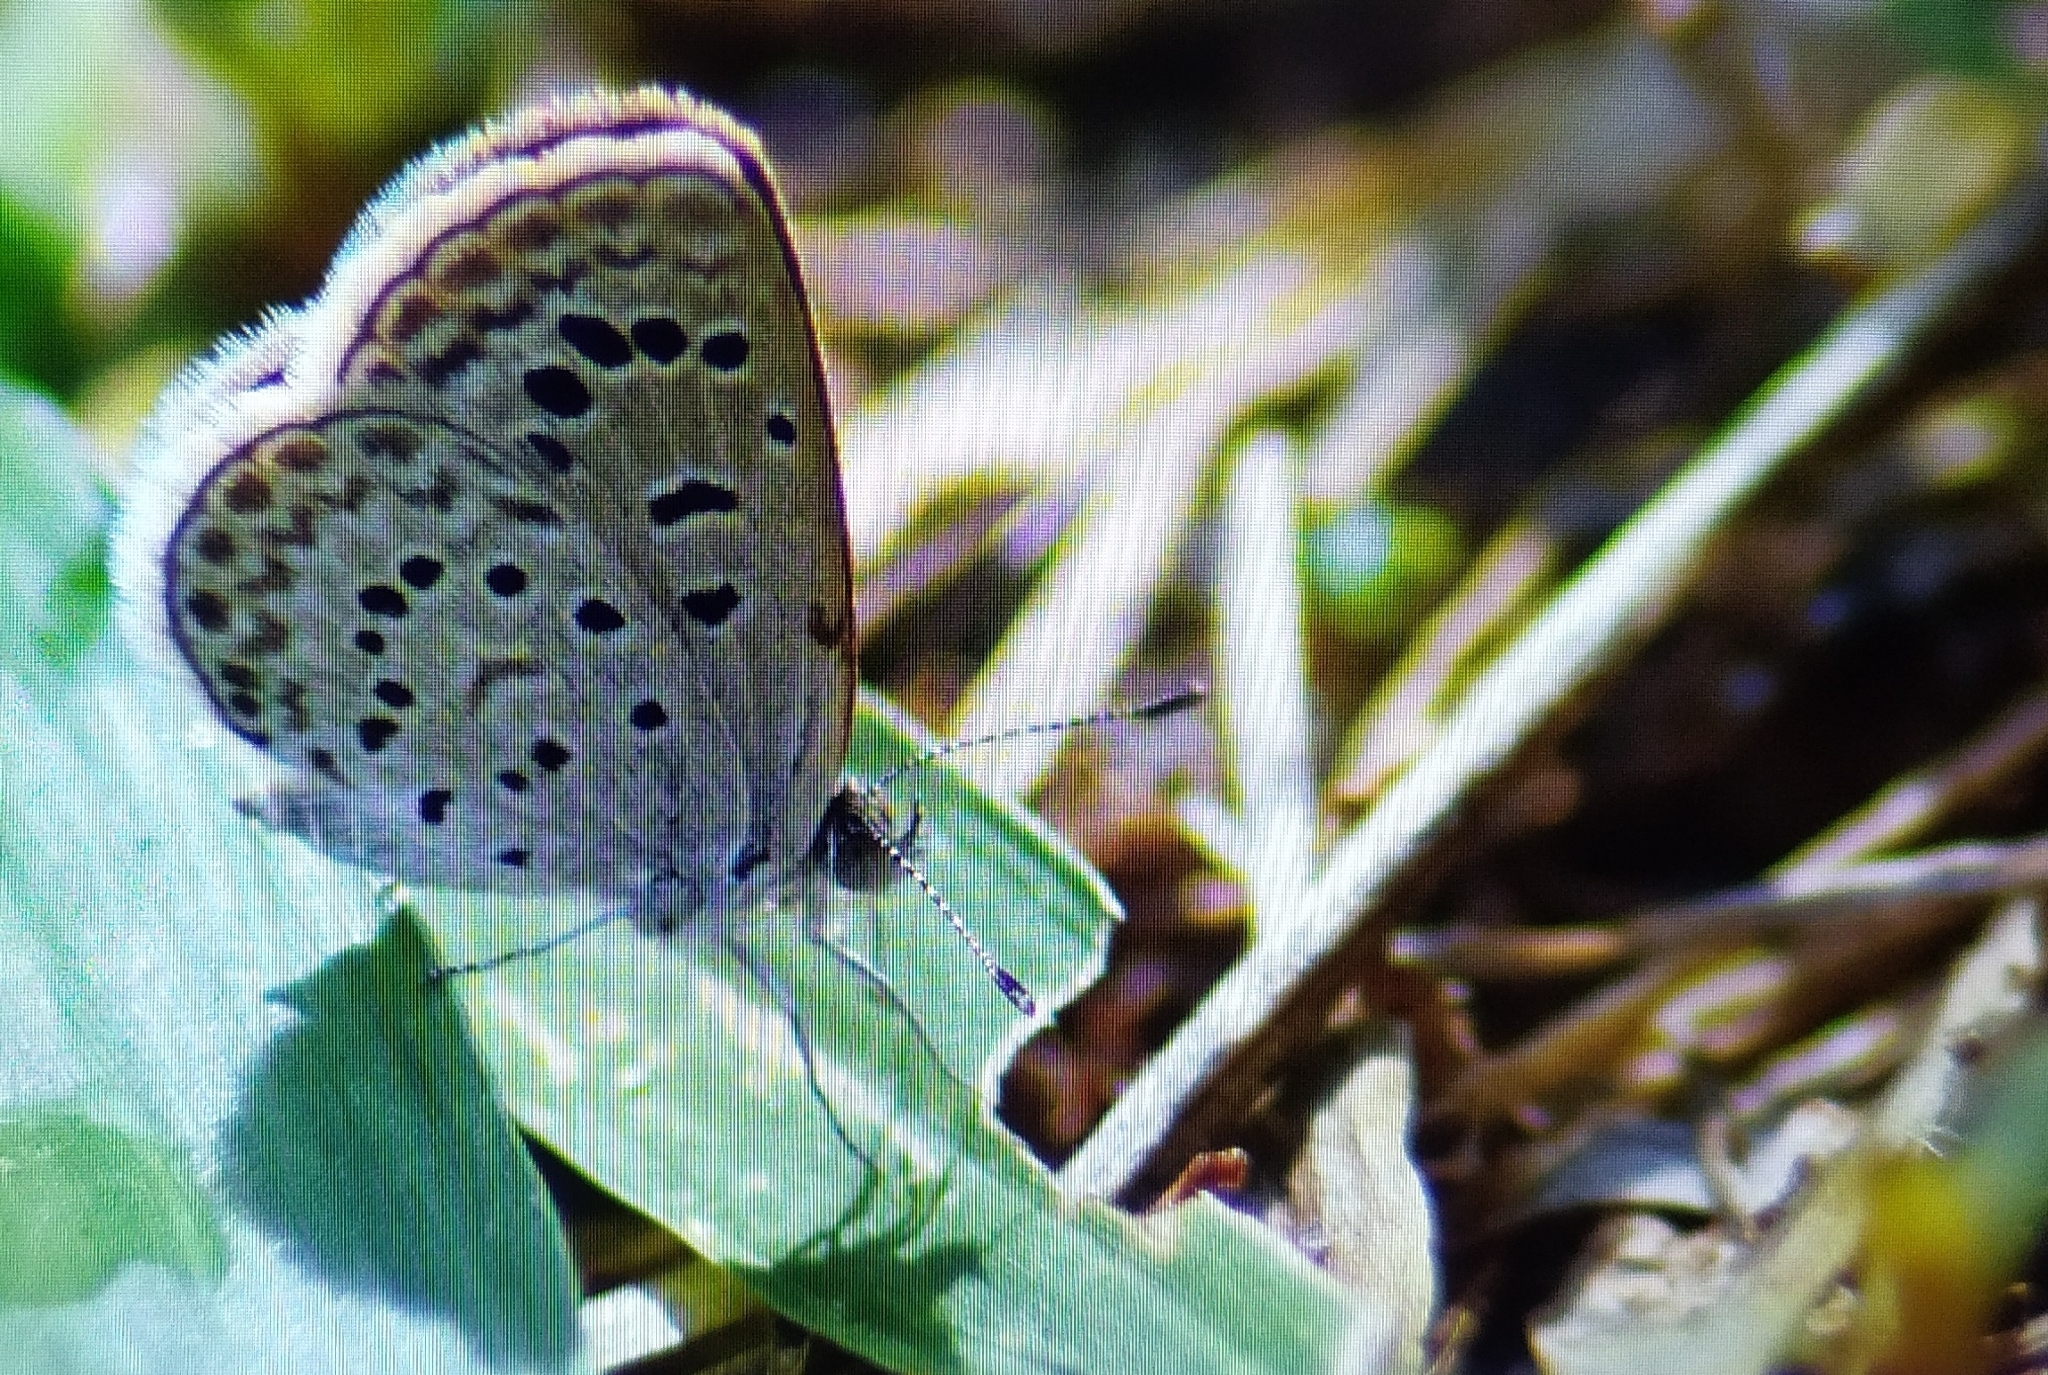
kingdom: Animalia
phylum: Arthropoda
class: Insecta
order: Lepidoptera
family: Lycaenidae
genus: Zizeeria
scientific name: Zizeeria karsandra
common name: Dark grass blue
